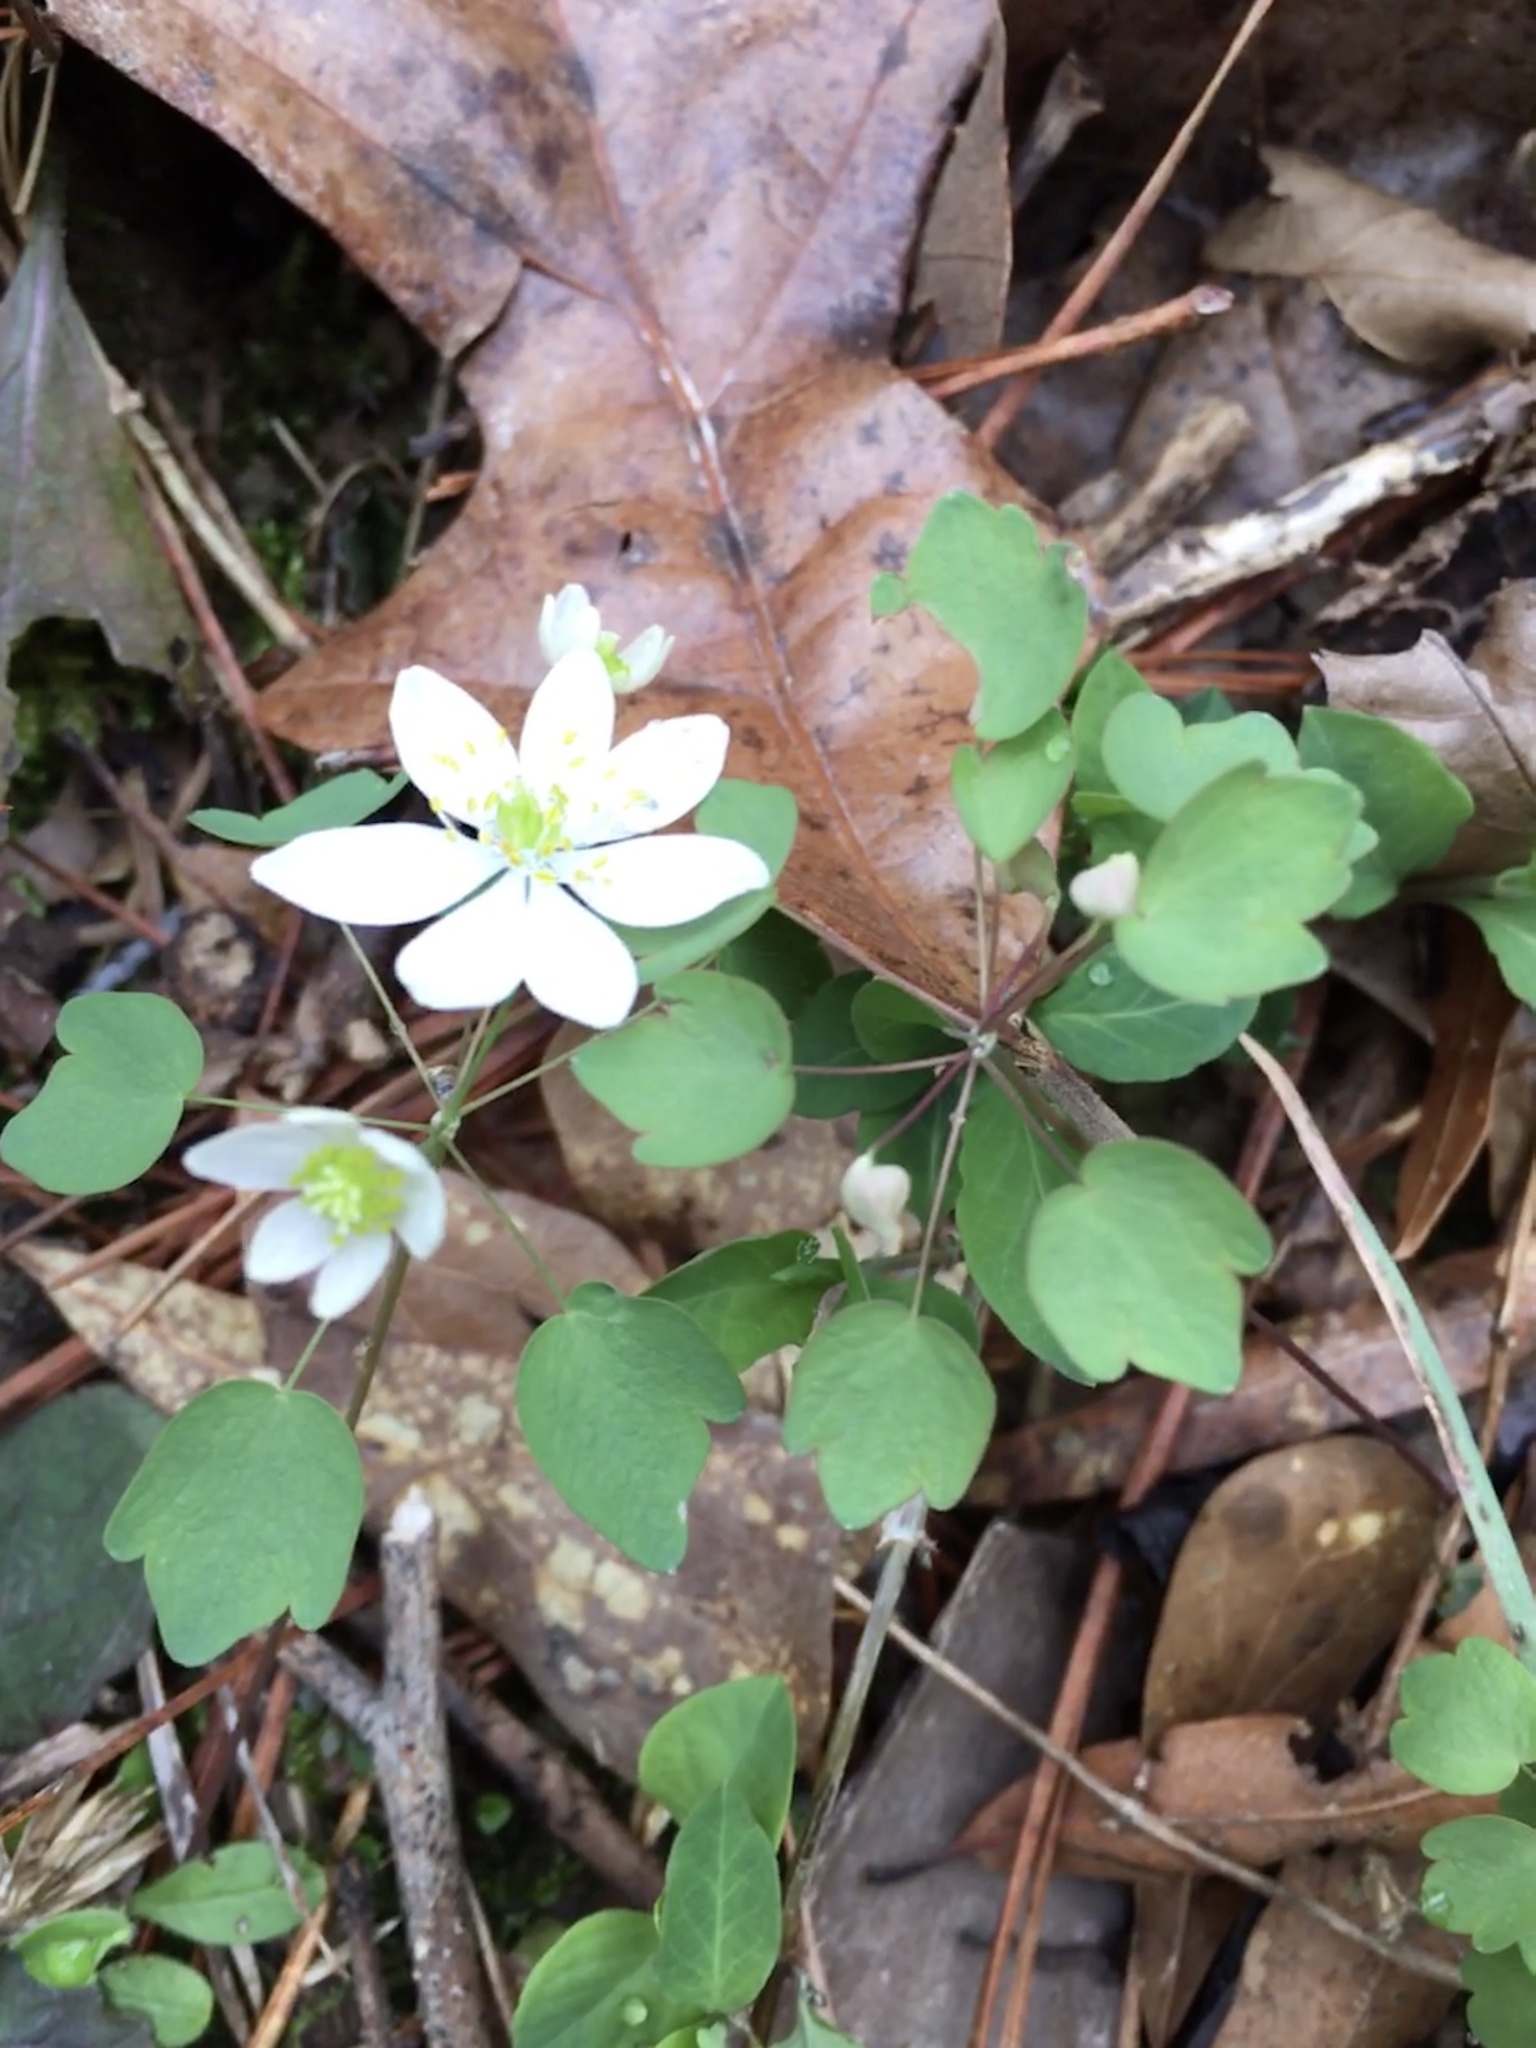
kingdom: Plantae
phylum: Tracheophyta
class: Magnoliopsida
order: Ranunculales
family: Ranunculaceae
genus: Thalictrum
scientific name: Thalictrum thalictroides
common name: Rue-anemone
